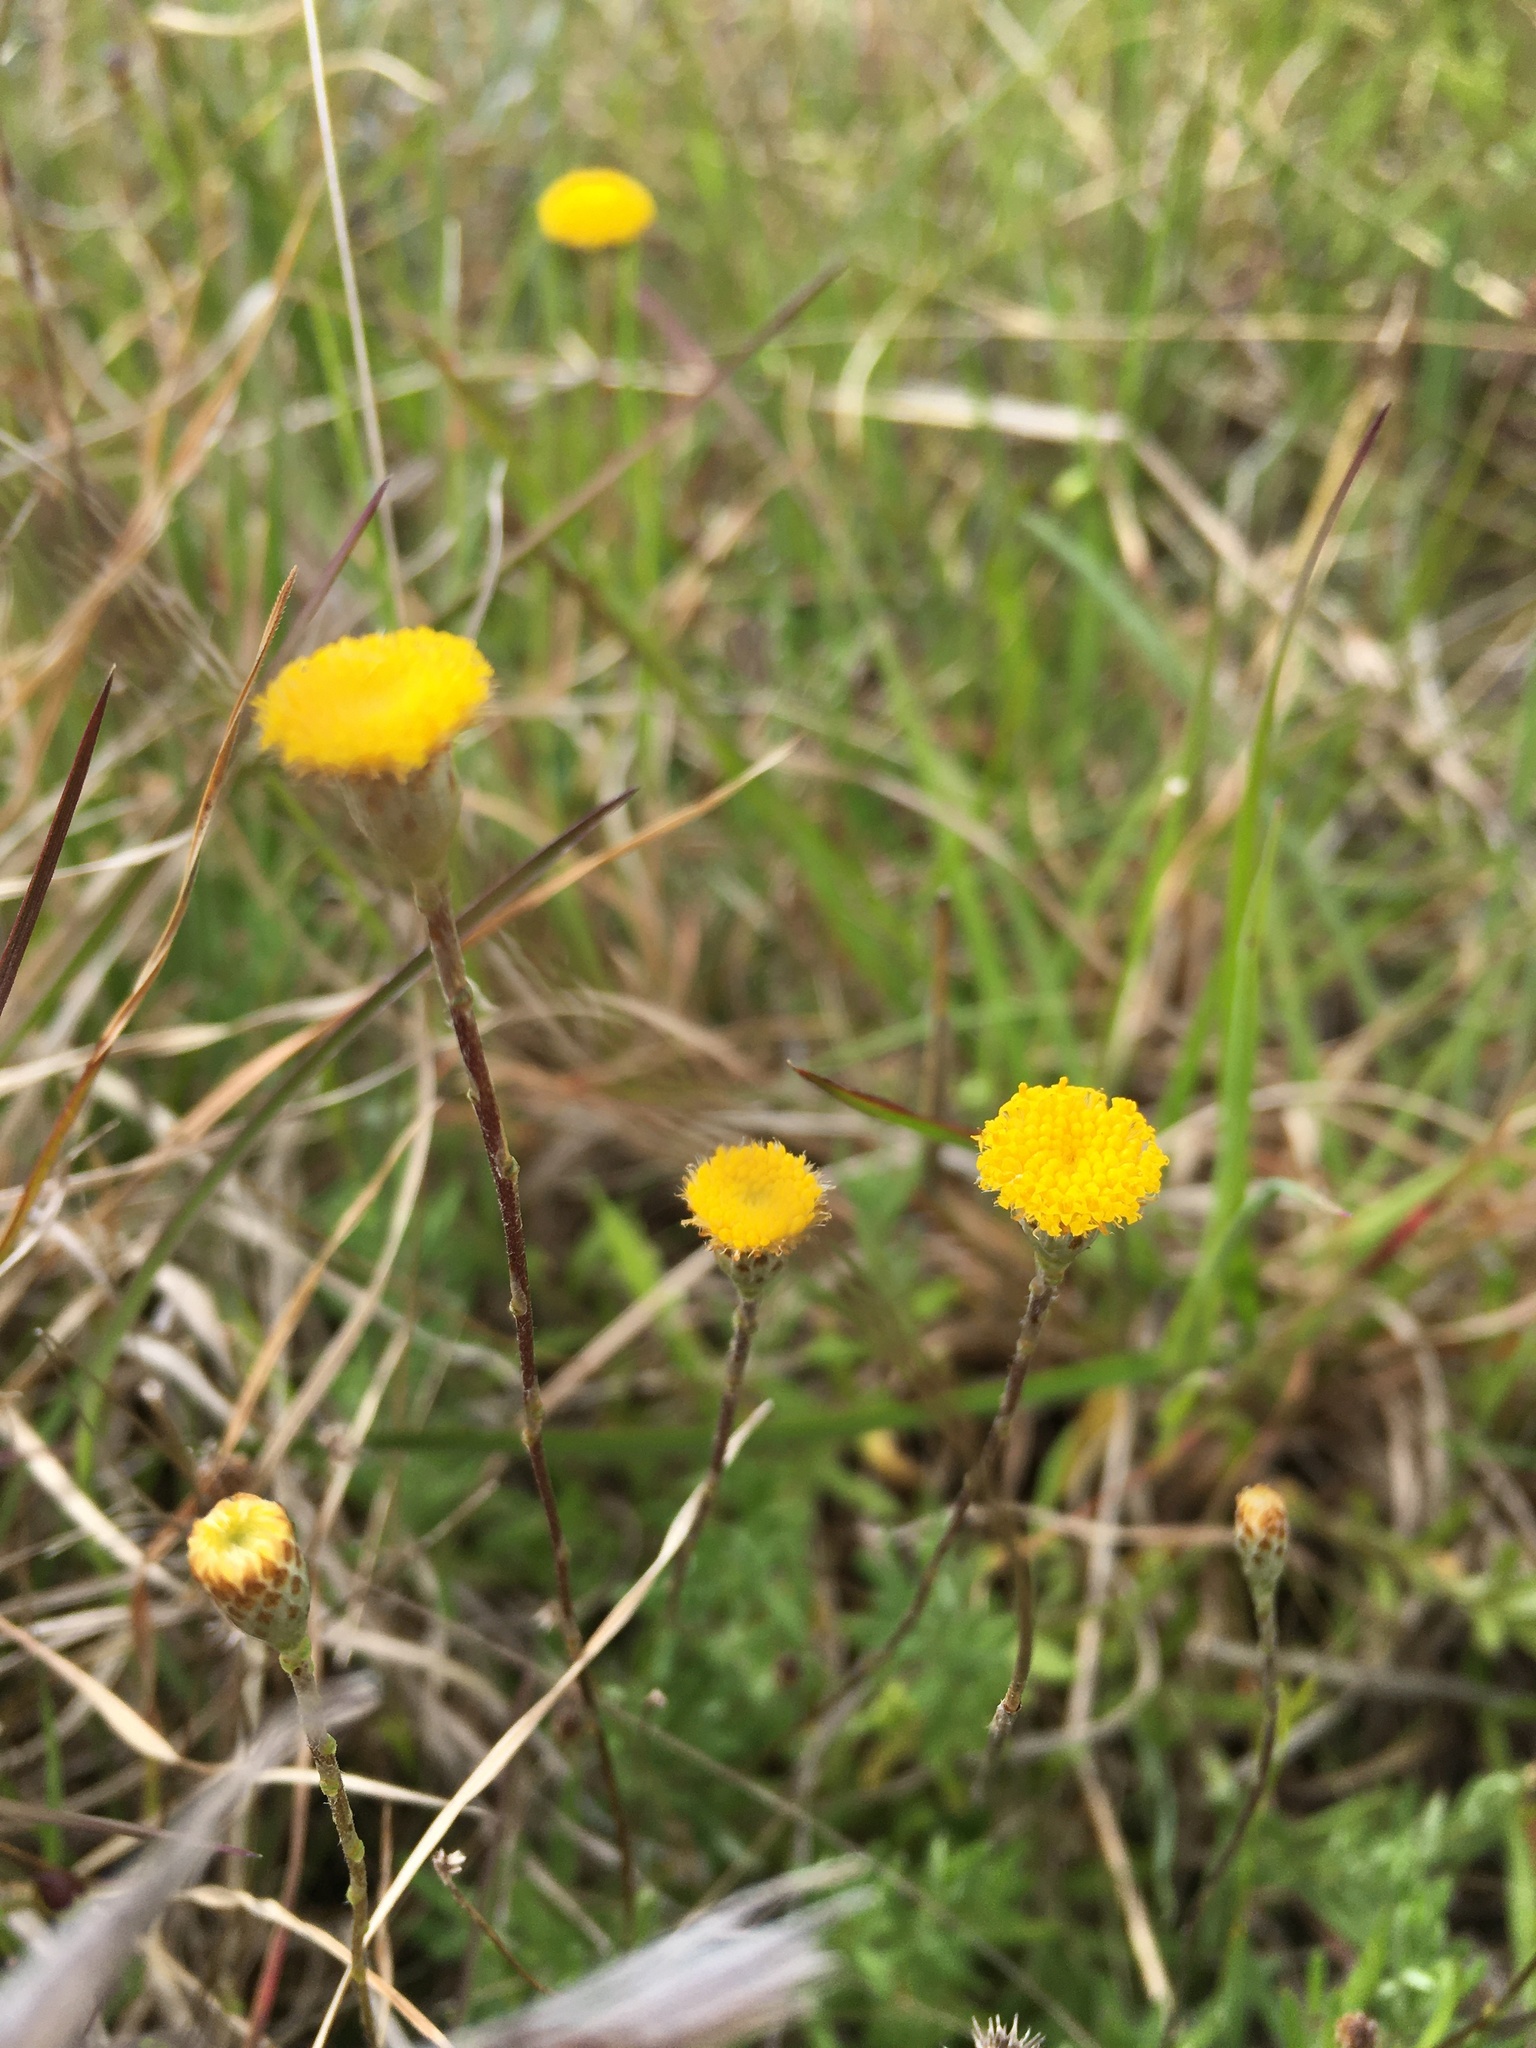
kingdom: Plantae
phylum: Tracheophyta
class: Magnoliopsida
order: Asterales
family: Asteraceae
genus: Leptorhynchos
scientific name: Leptorhynchos squamatus
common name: Scaly-buttons
